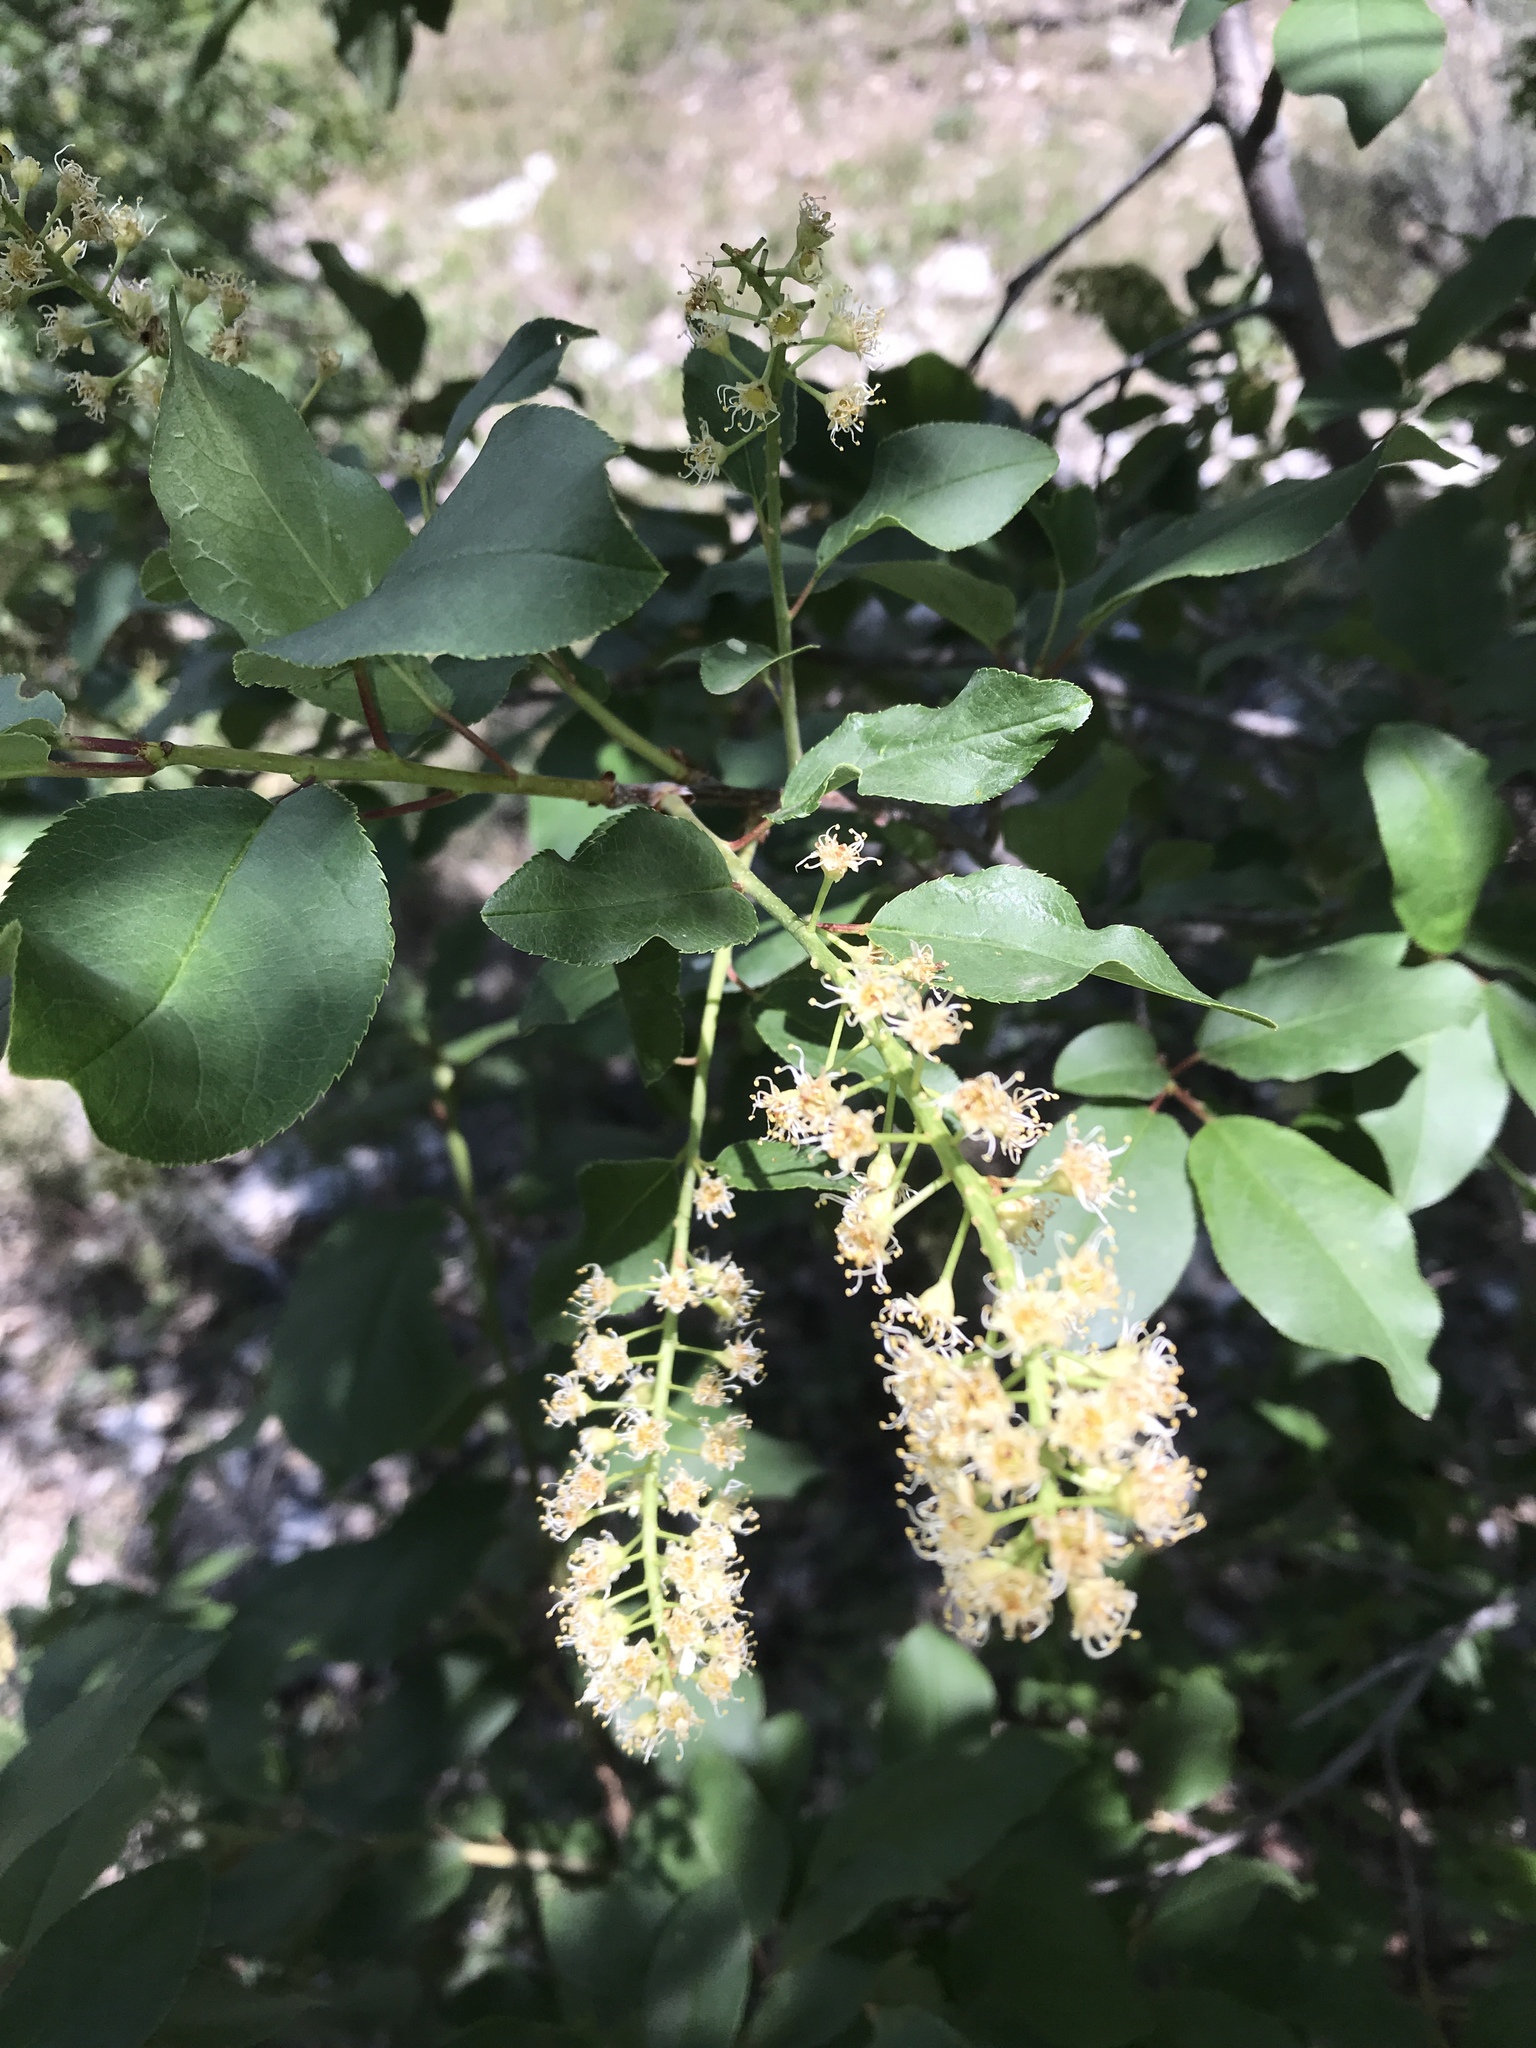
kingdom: Plantae
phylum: Tracheophyta
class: Magnoliopsida
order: Rosales
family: Rosaceae
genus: Prunus
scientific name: Prunus virginiana
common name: Chokecherry
